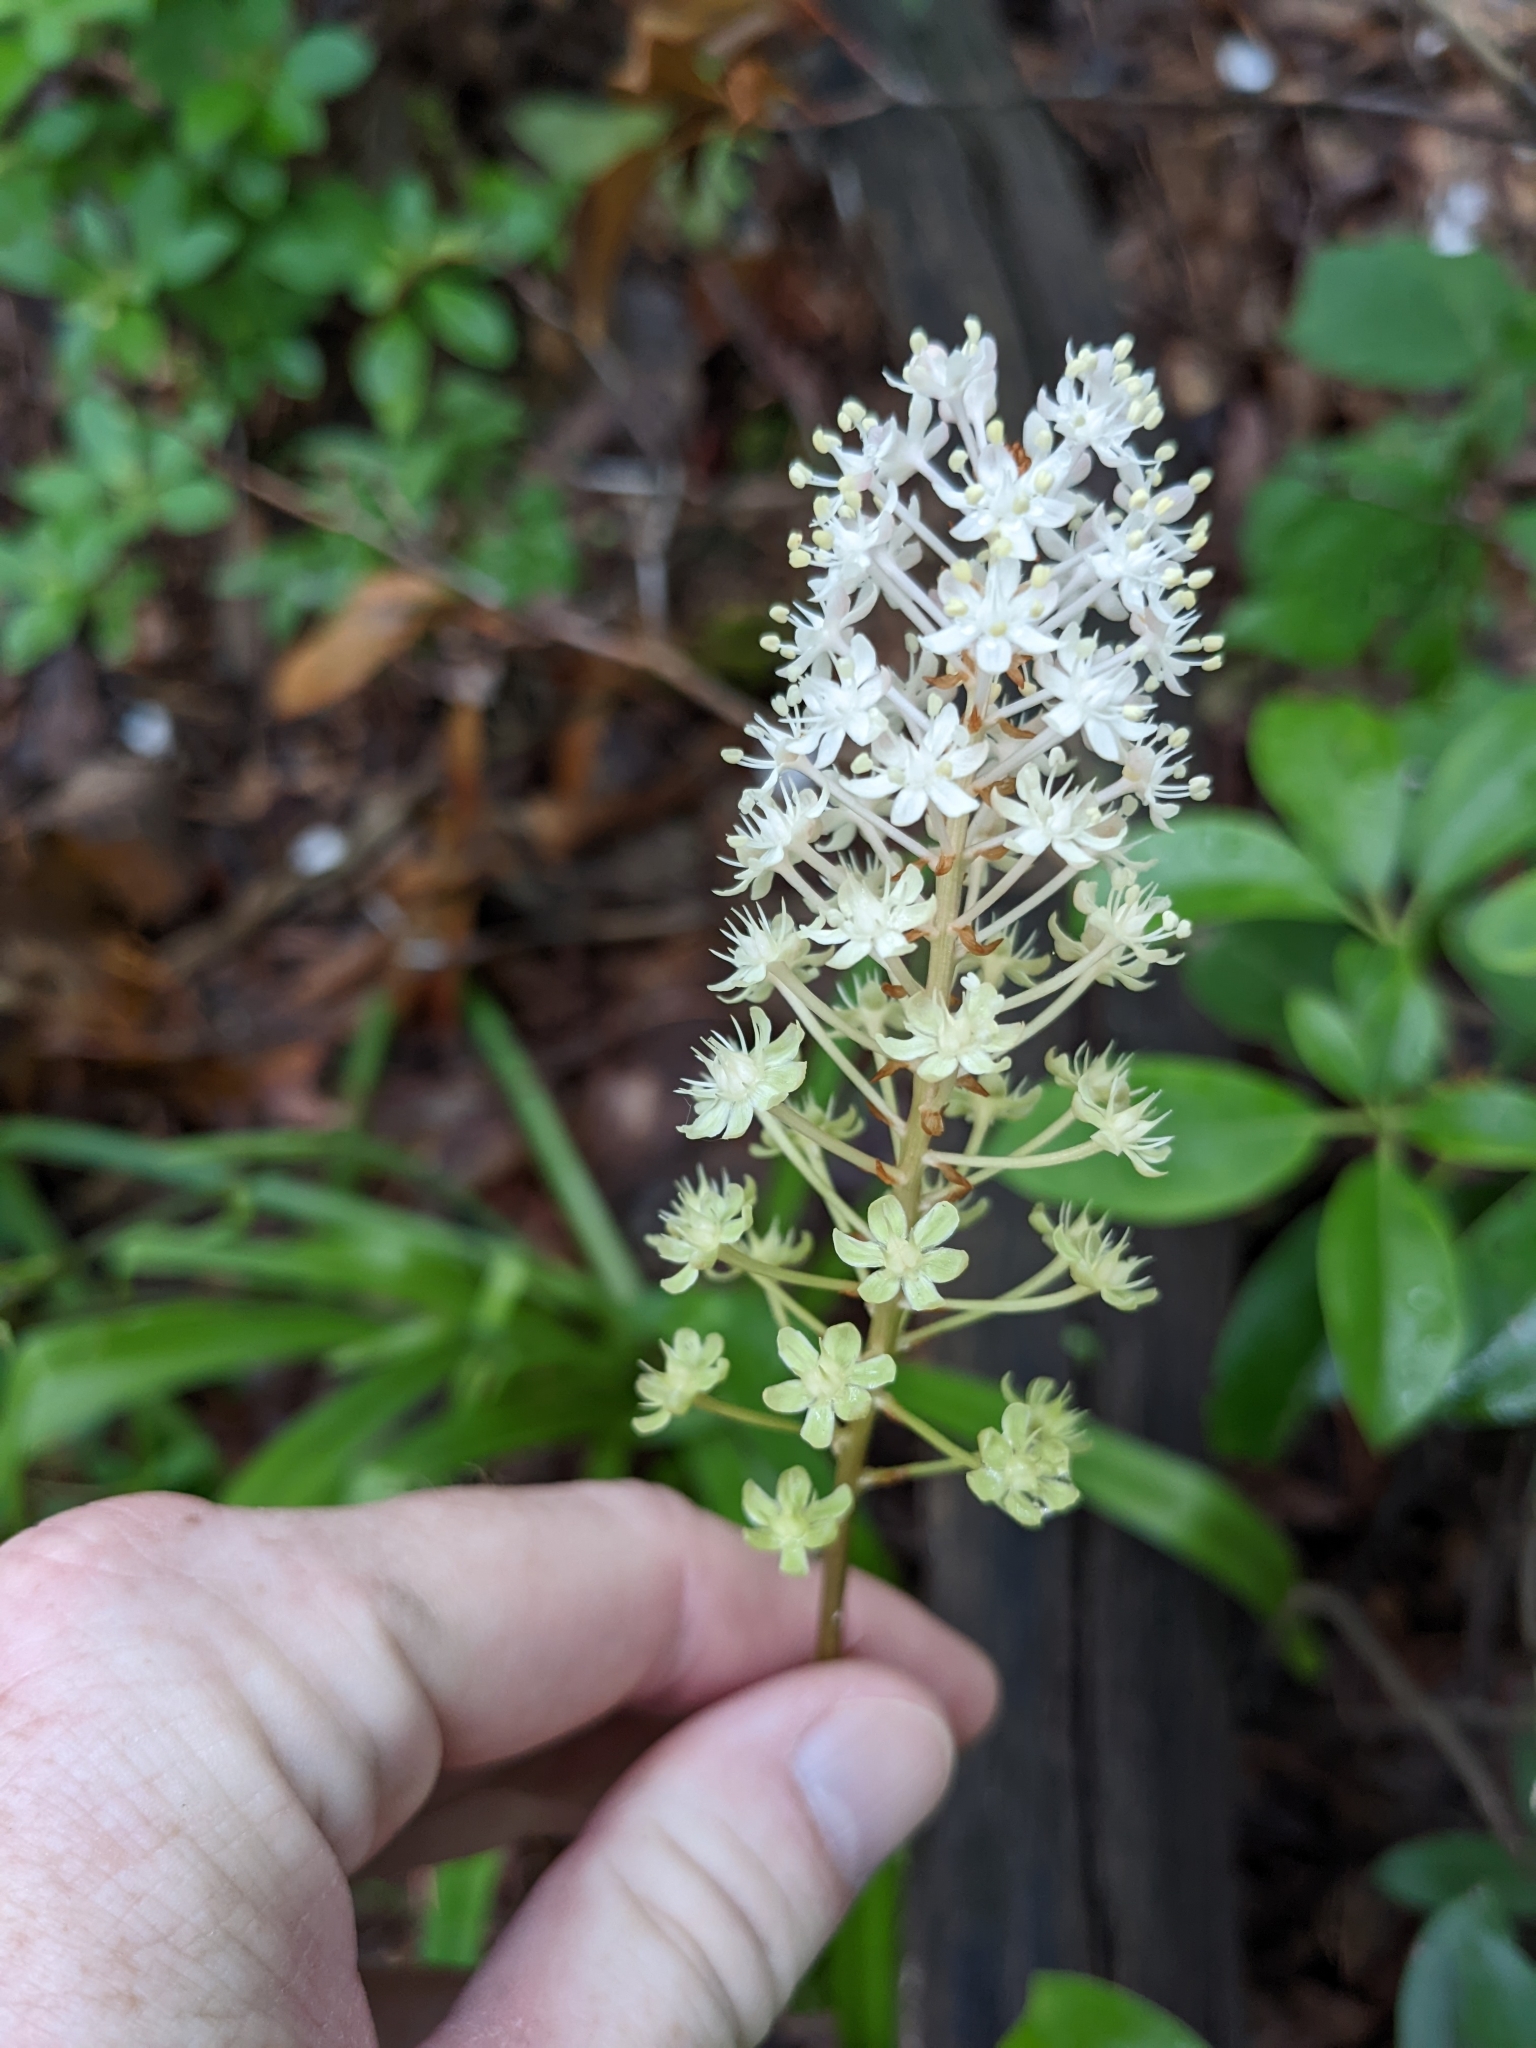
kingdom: Plantae
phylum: Tracheophyta
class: Liliopsida
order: Liliales
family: Melanthiaceae
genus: Amianthium
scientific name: Amianthium muscitoxicum
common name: Fly-poison
